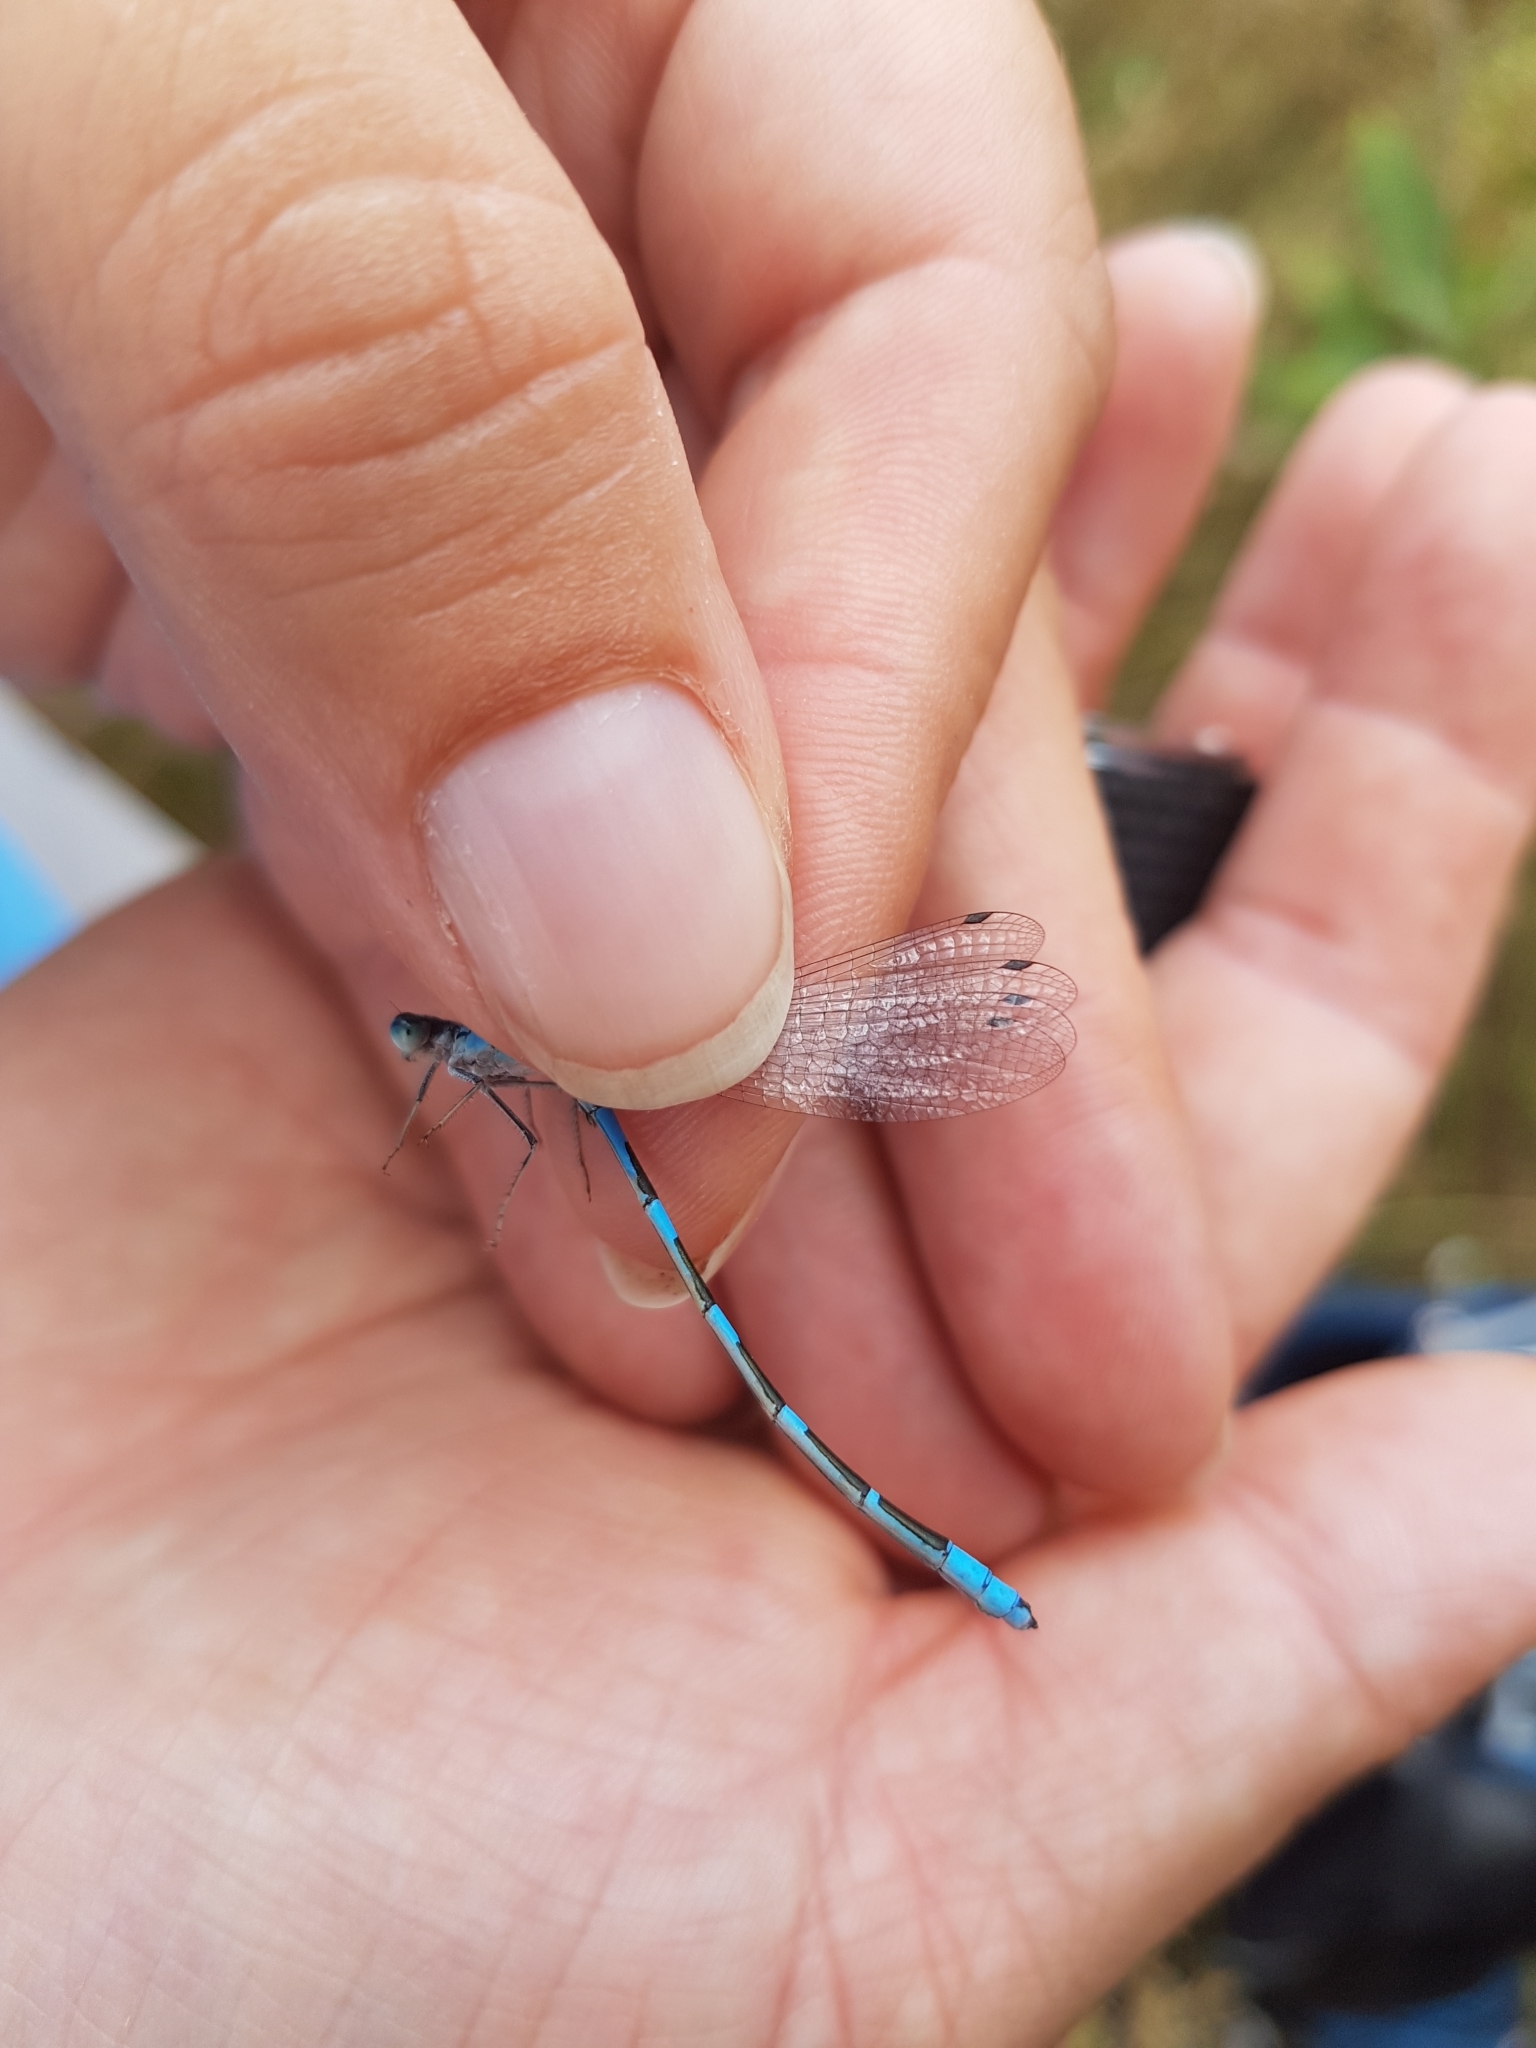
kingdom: Animalia
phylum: Arthropoda
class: Insecta
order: Odonata
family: Coenagrionidae
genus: Enallagma
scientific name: Enallagma carunculatum
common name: Tule bluet
